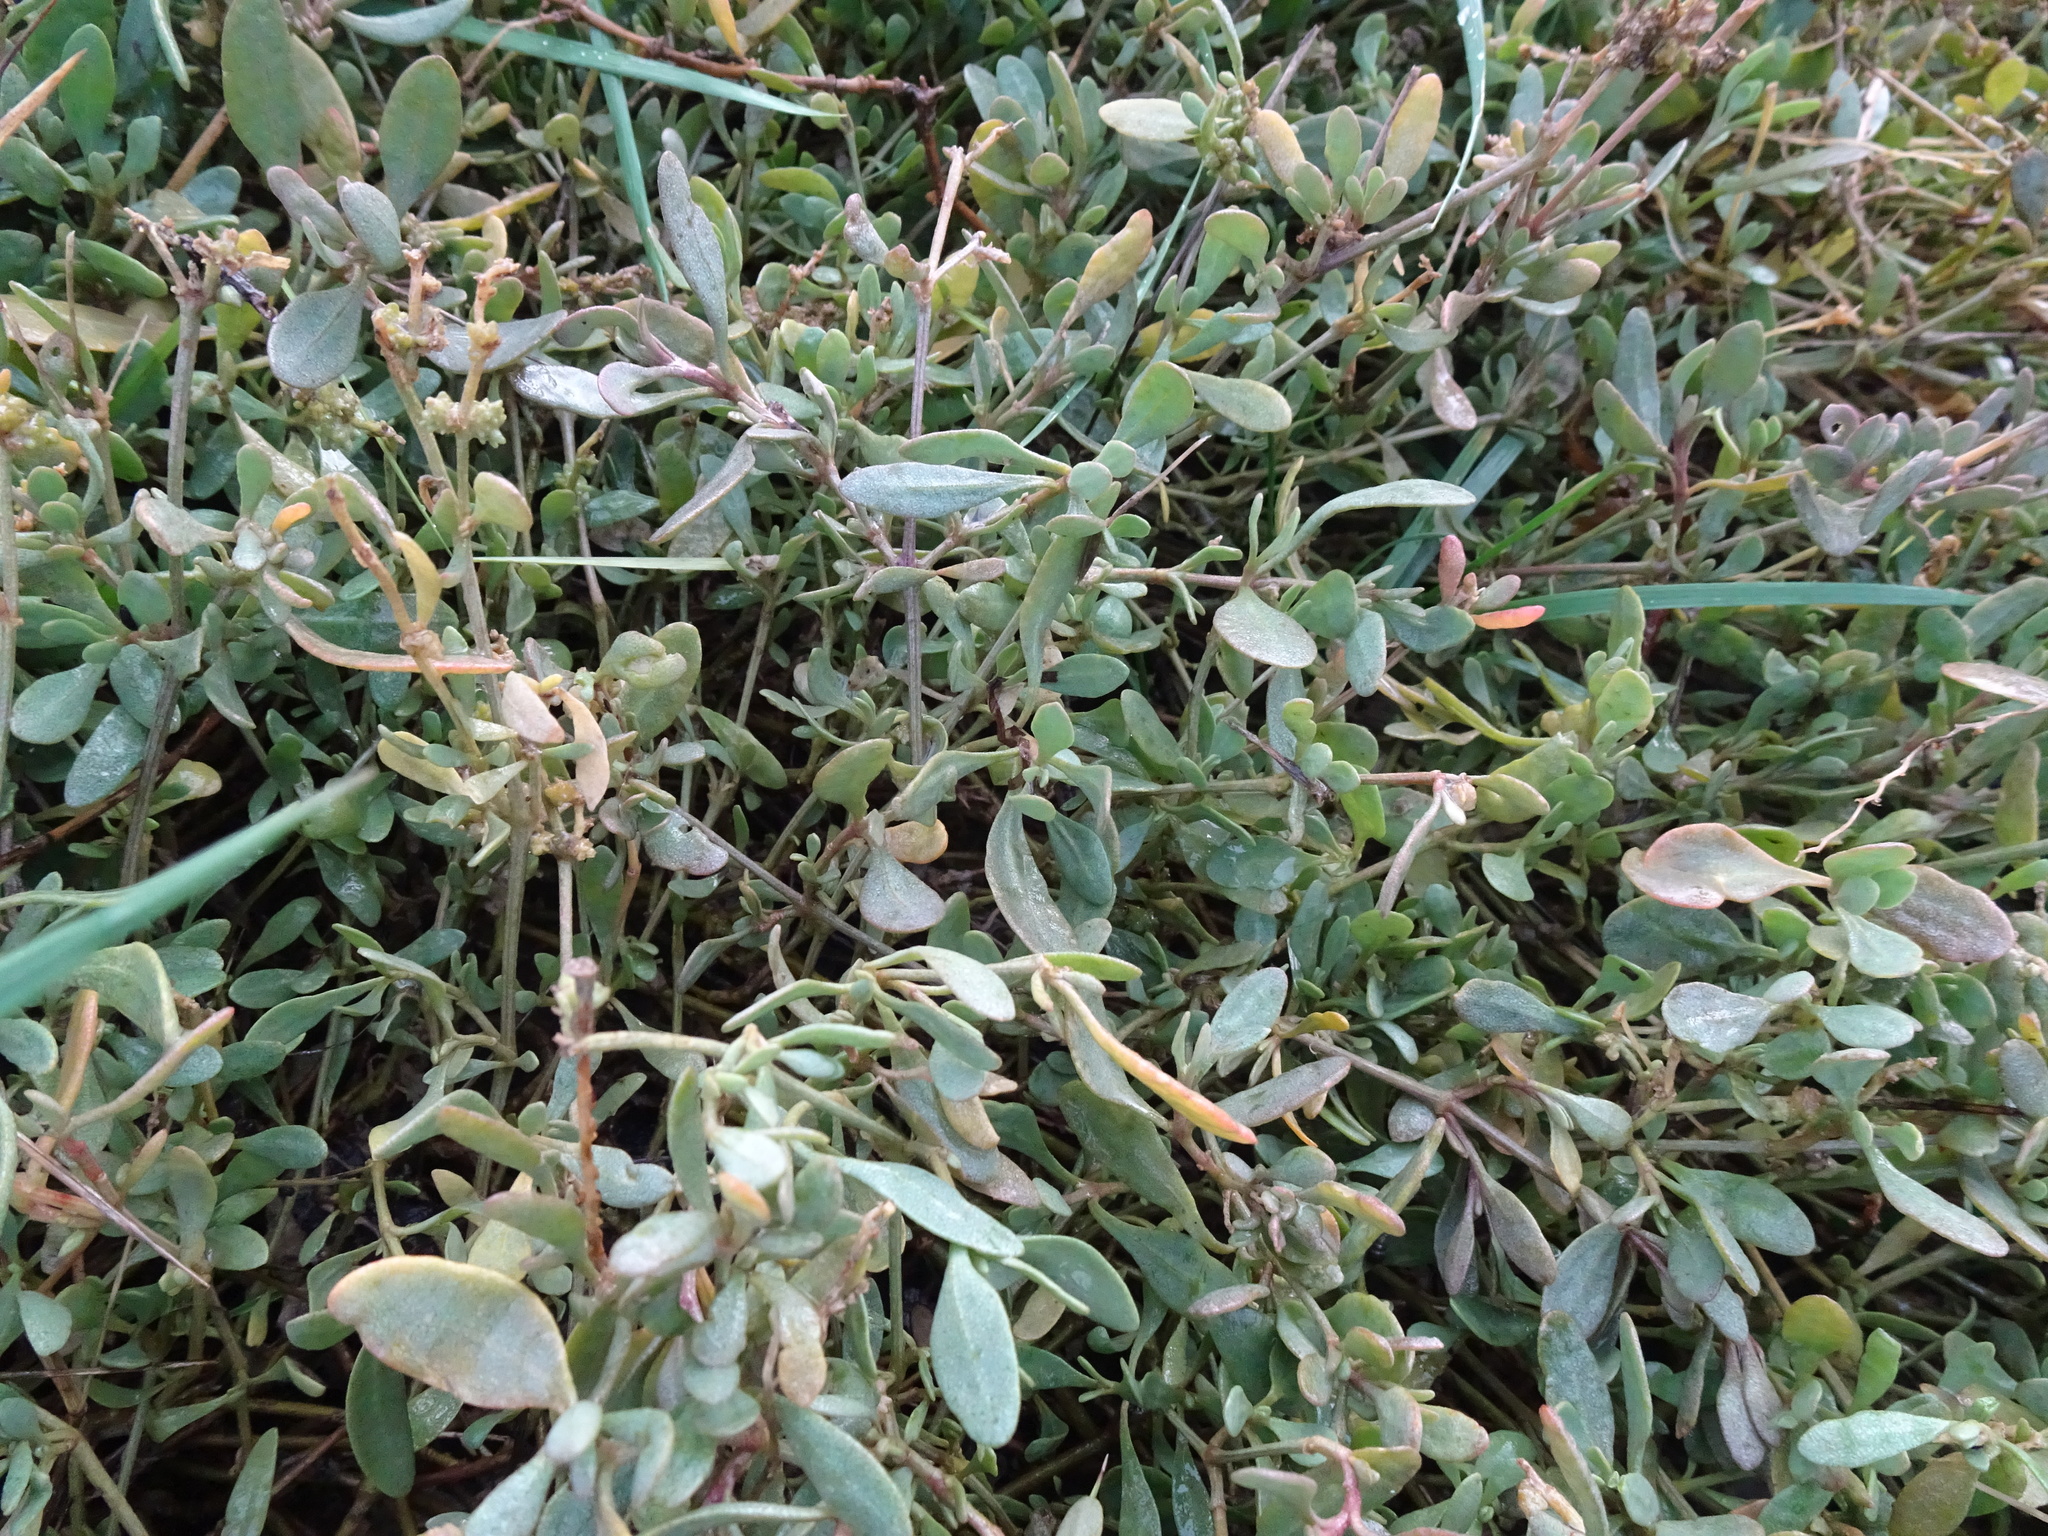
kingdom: Plantae
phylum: Tracheophyta
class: Magnoliopsida
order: Caryophyllales
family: Amaranthaceae
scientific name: Amaranthaceae
